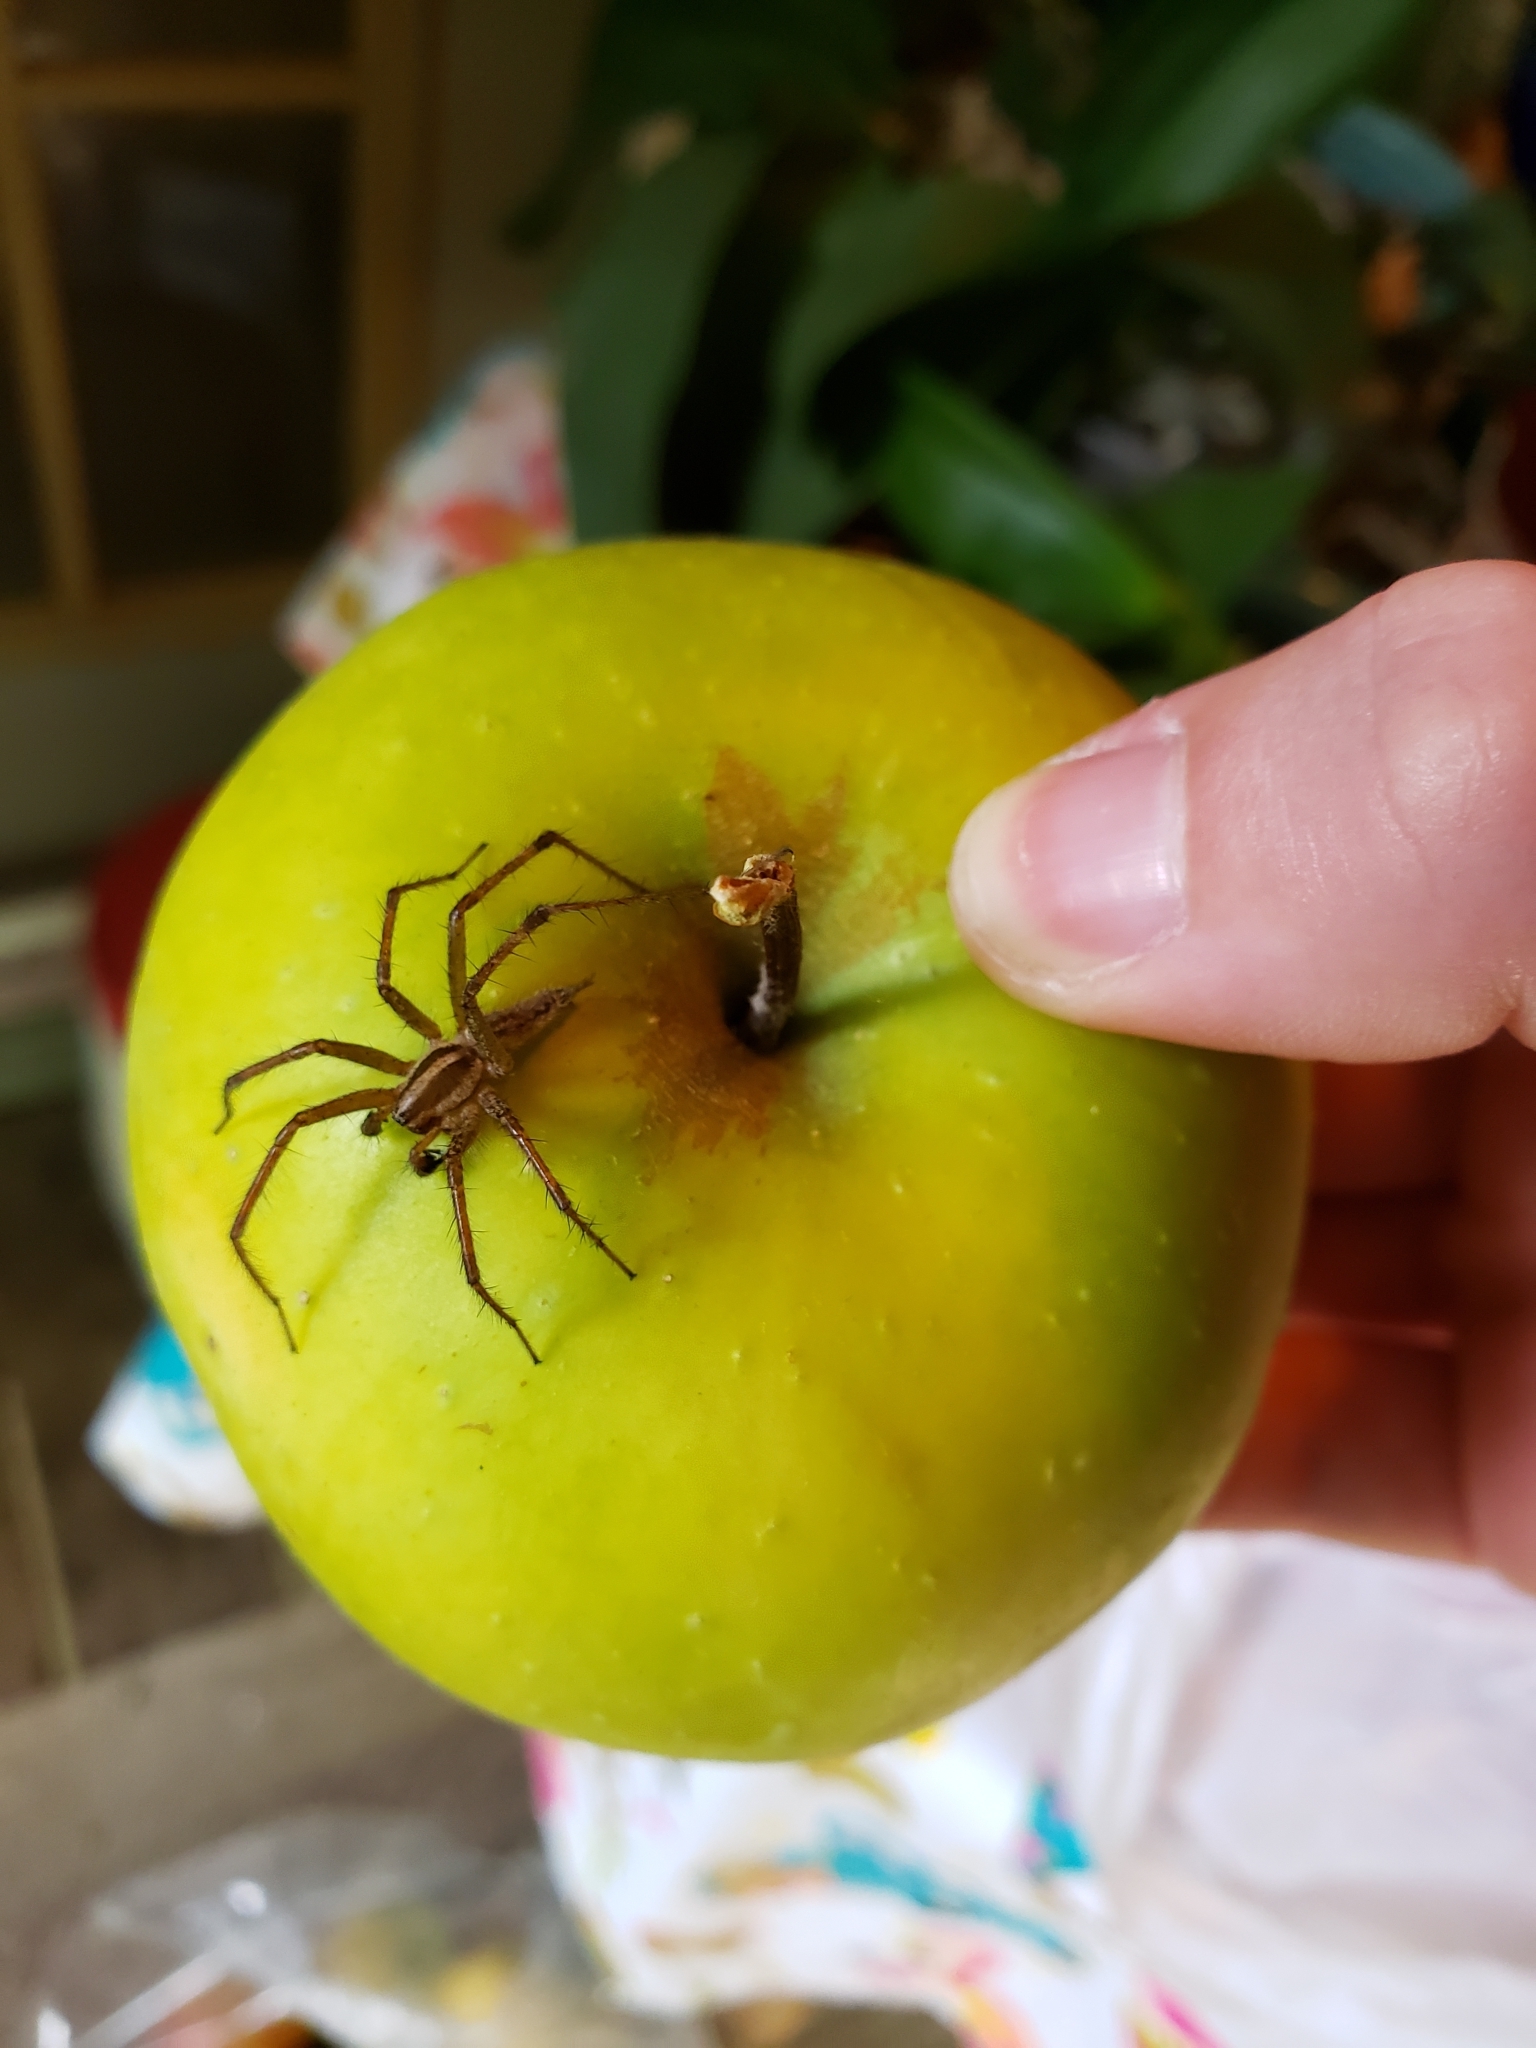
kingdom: Animalia
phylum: Arthropoda
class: Arachnida
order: Araneae
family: Agelenidae
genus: Agelenopsis
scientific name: Agelenopsis
